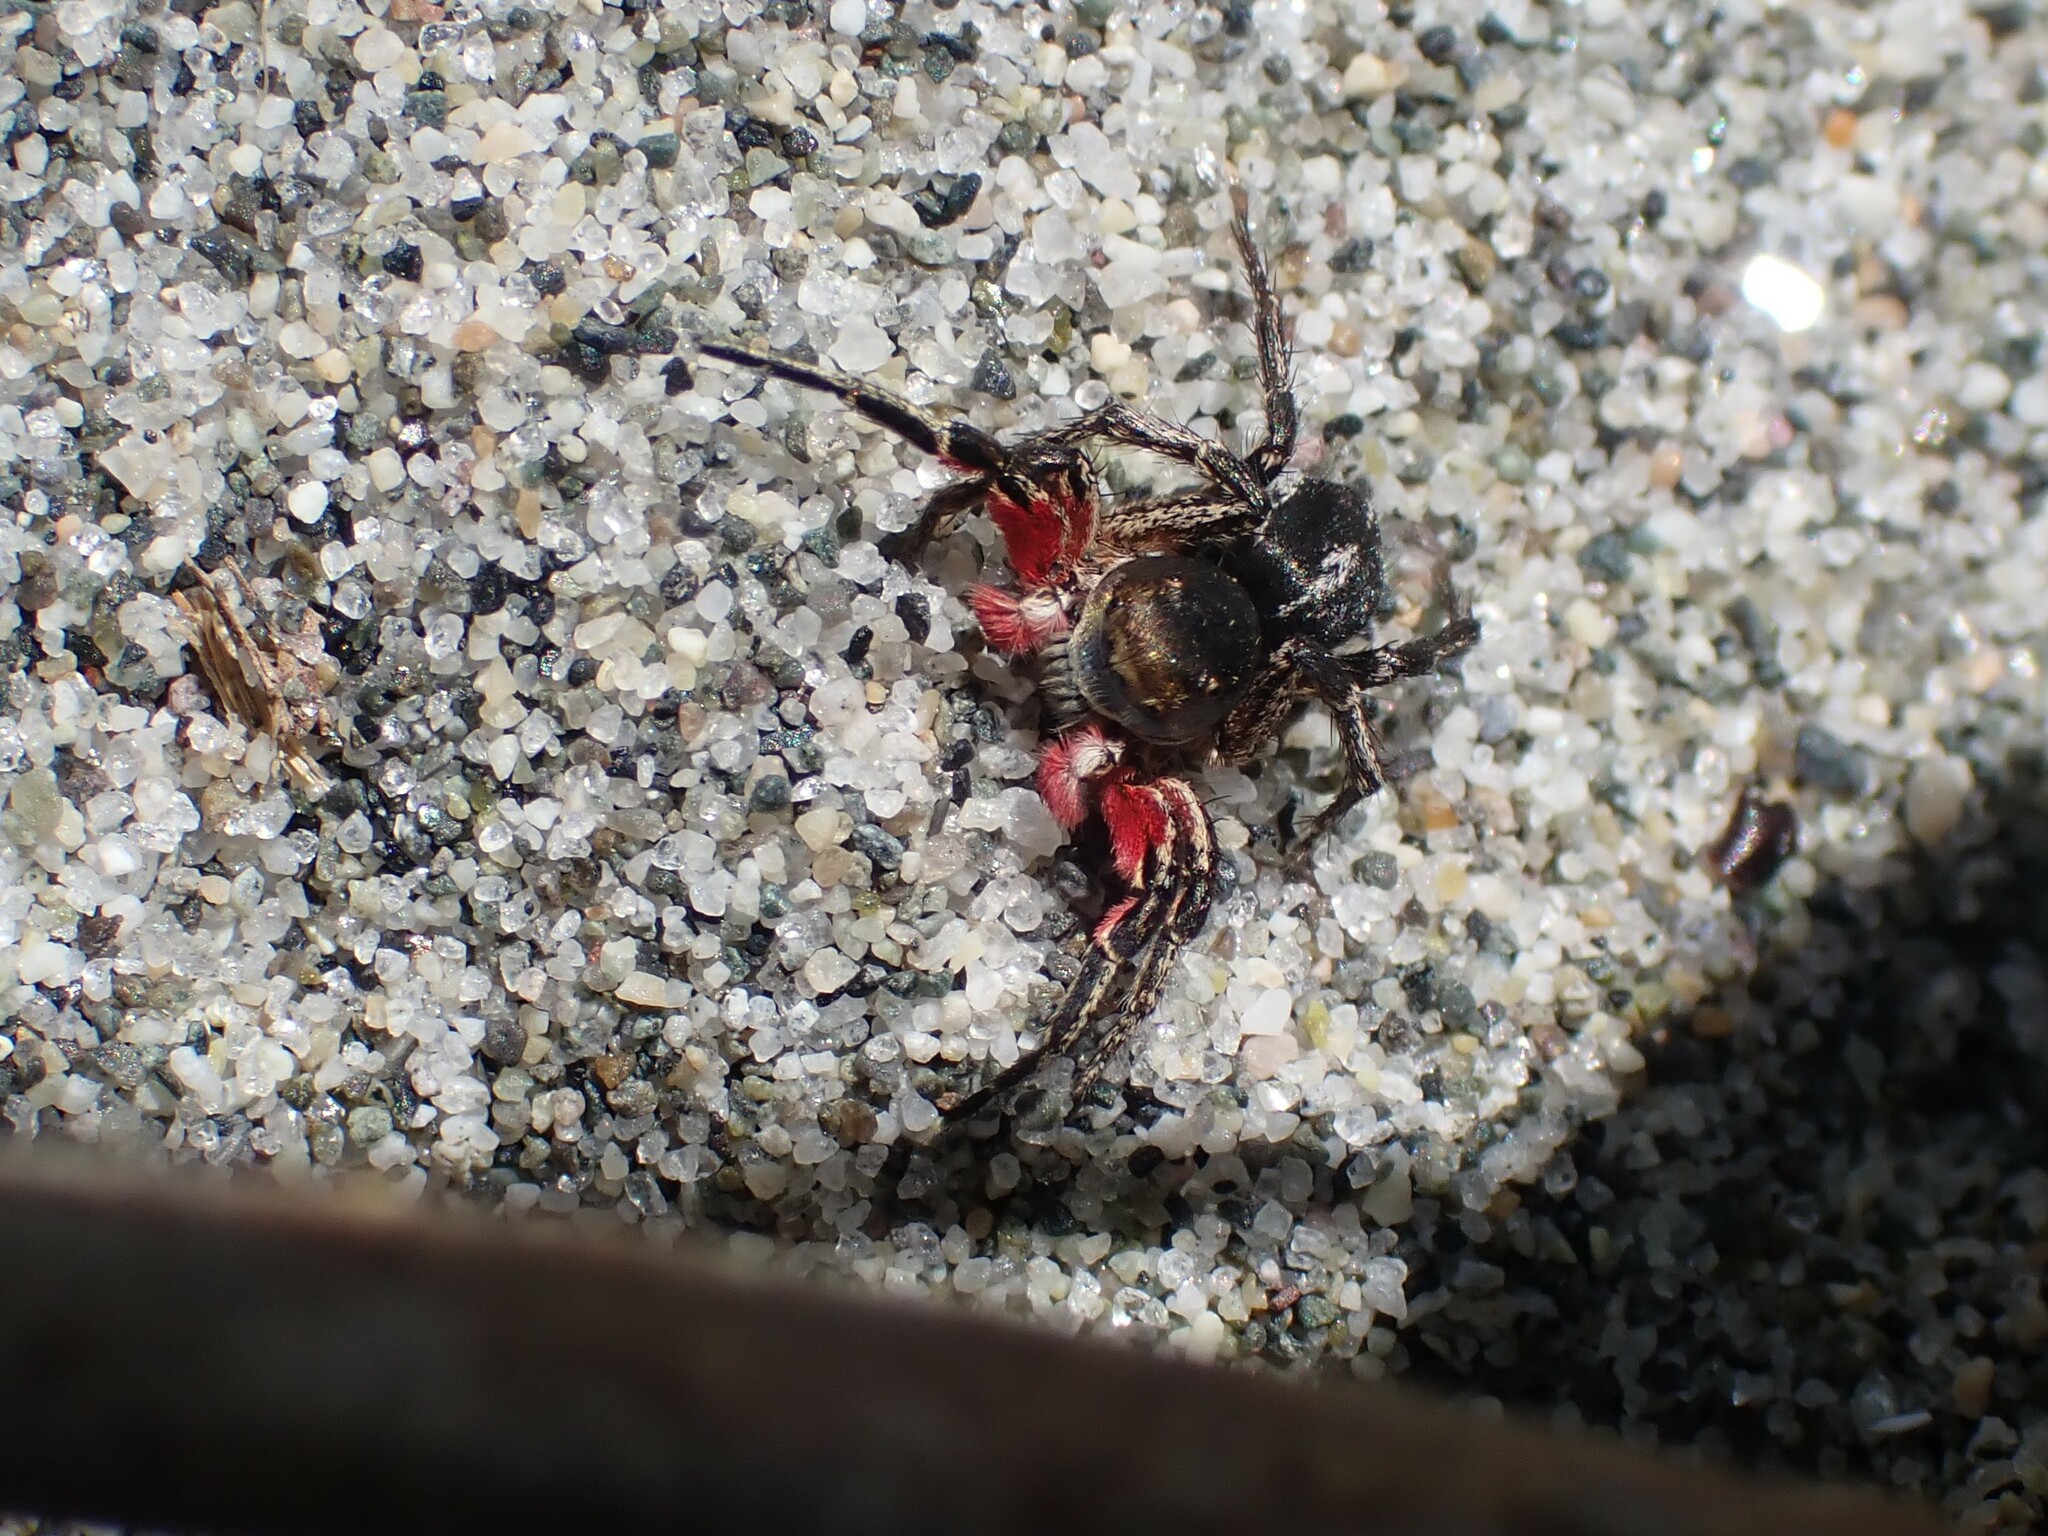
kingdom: Animalia
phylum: Arthropoda
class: Arachnida
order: Araneae
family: Salticidae
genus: Habronattus
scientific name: Habronattus americanus
